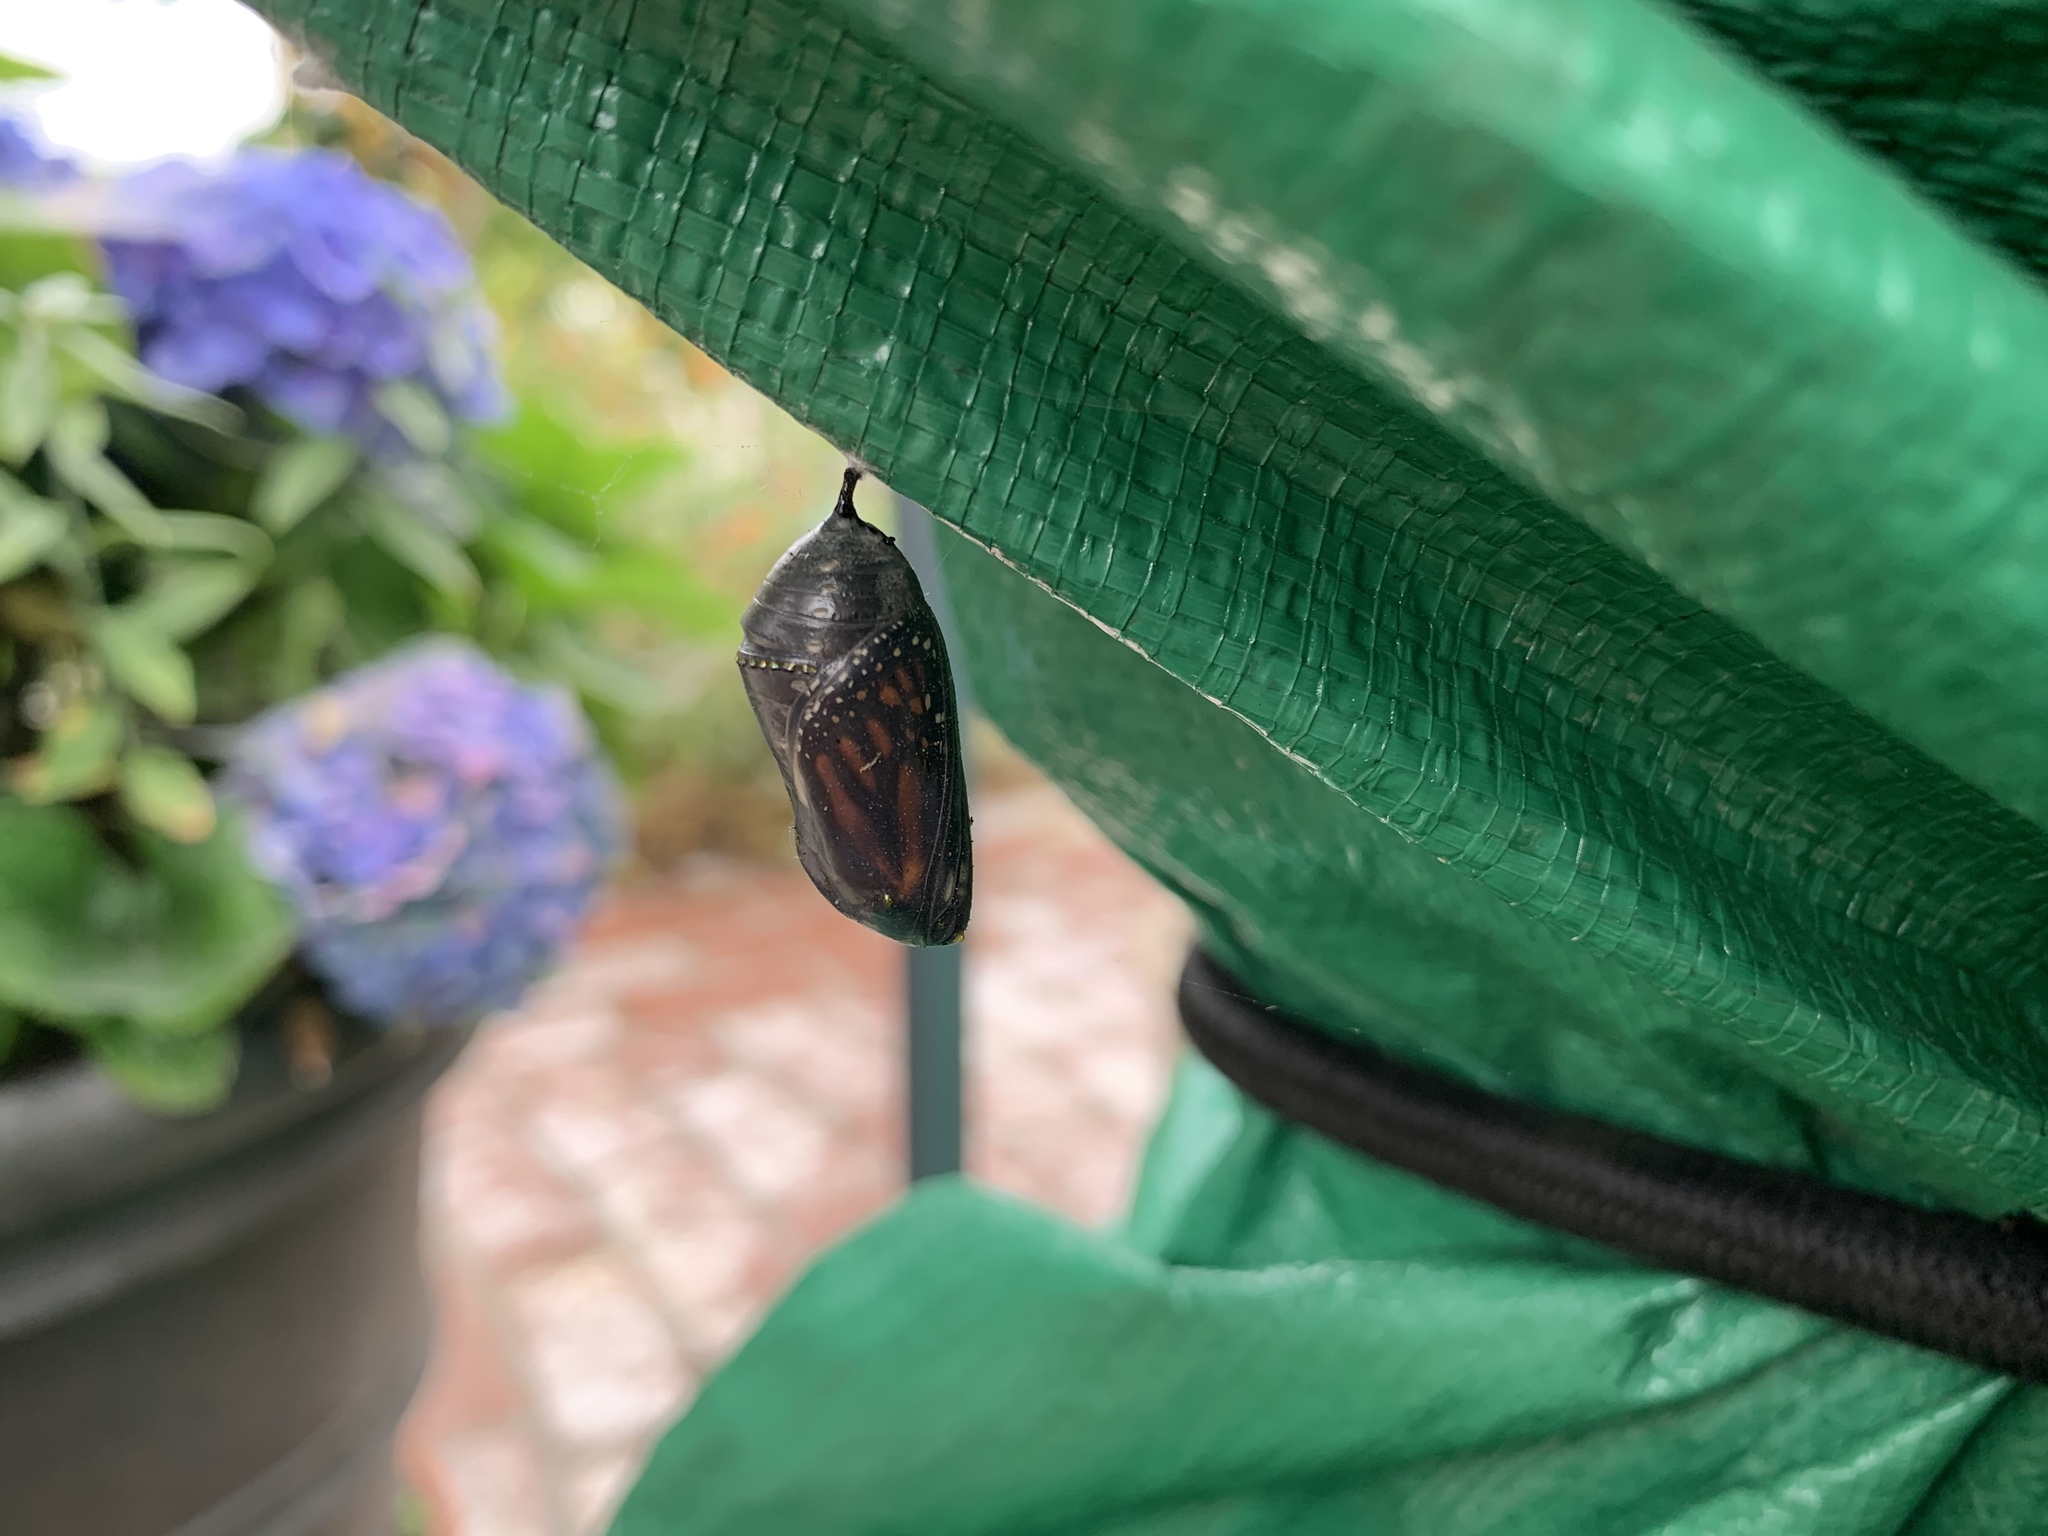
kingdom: Animalia
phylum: Arthropoda
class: Insecta
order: Lepidoptera
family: Nymphalidae
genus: Danaus
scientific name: Danaus plexippus
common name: Monarch
